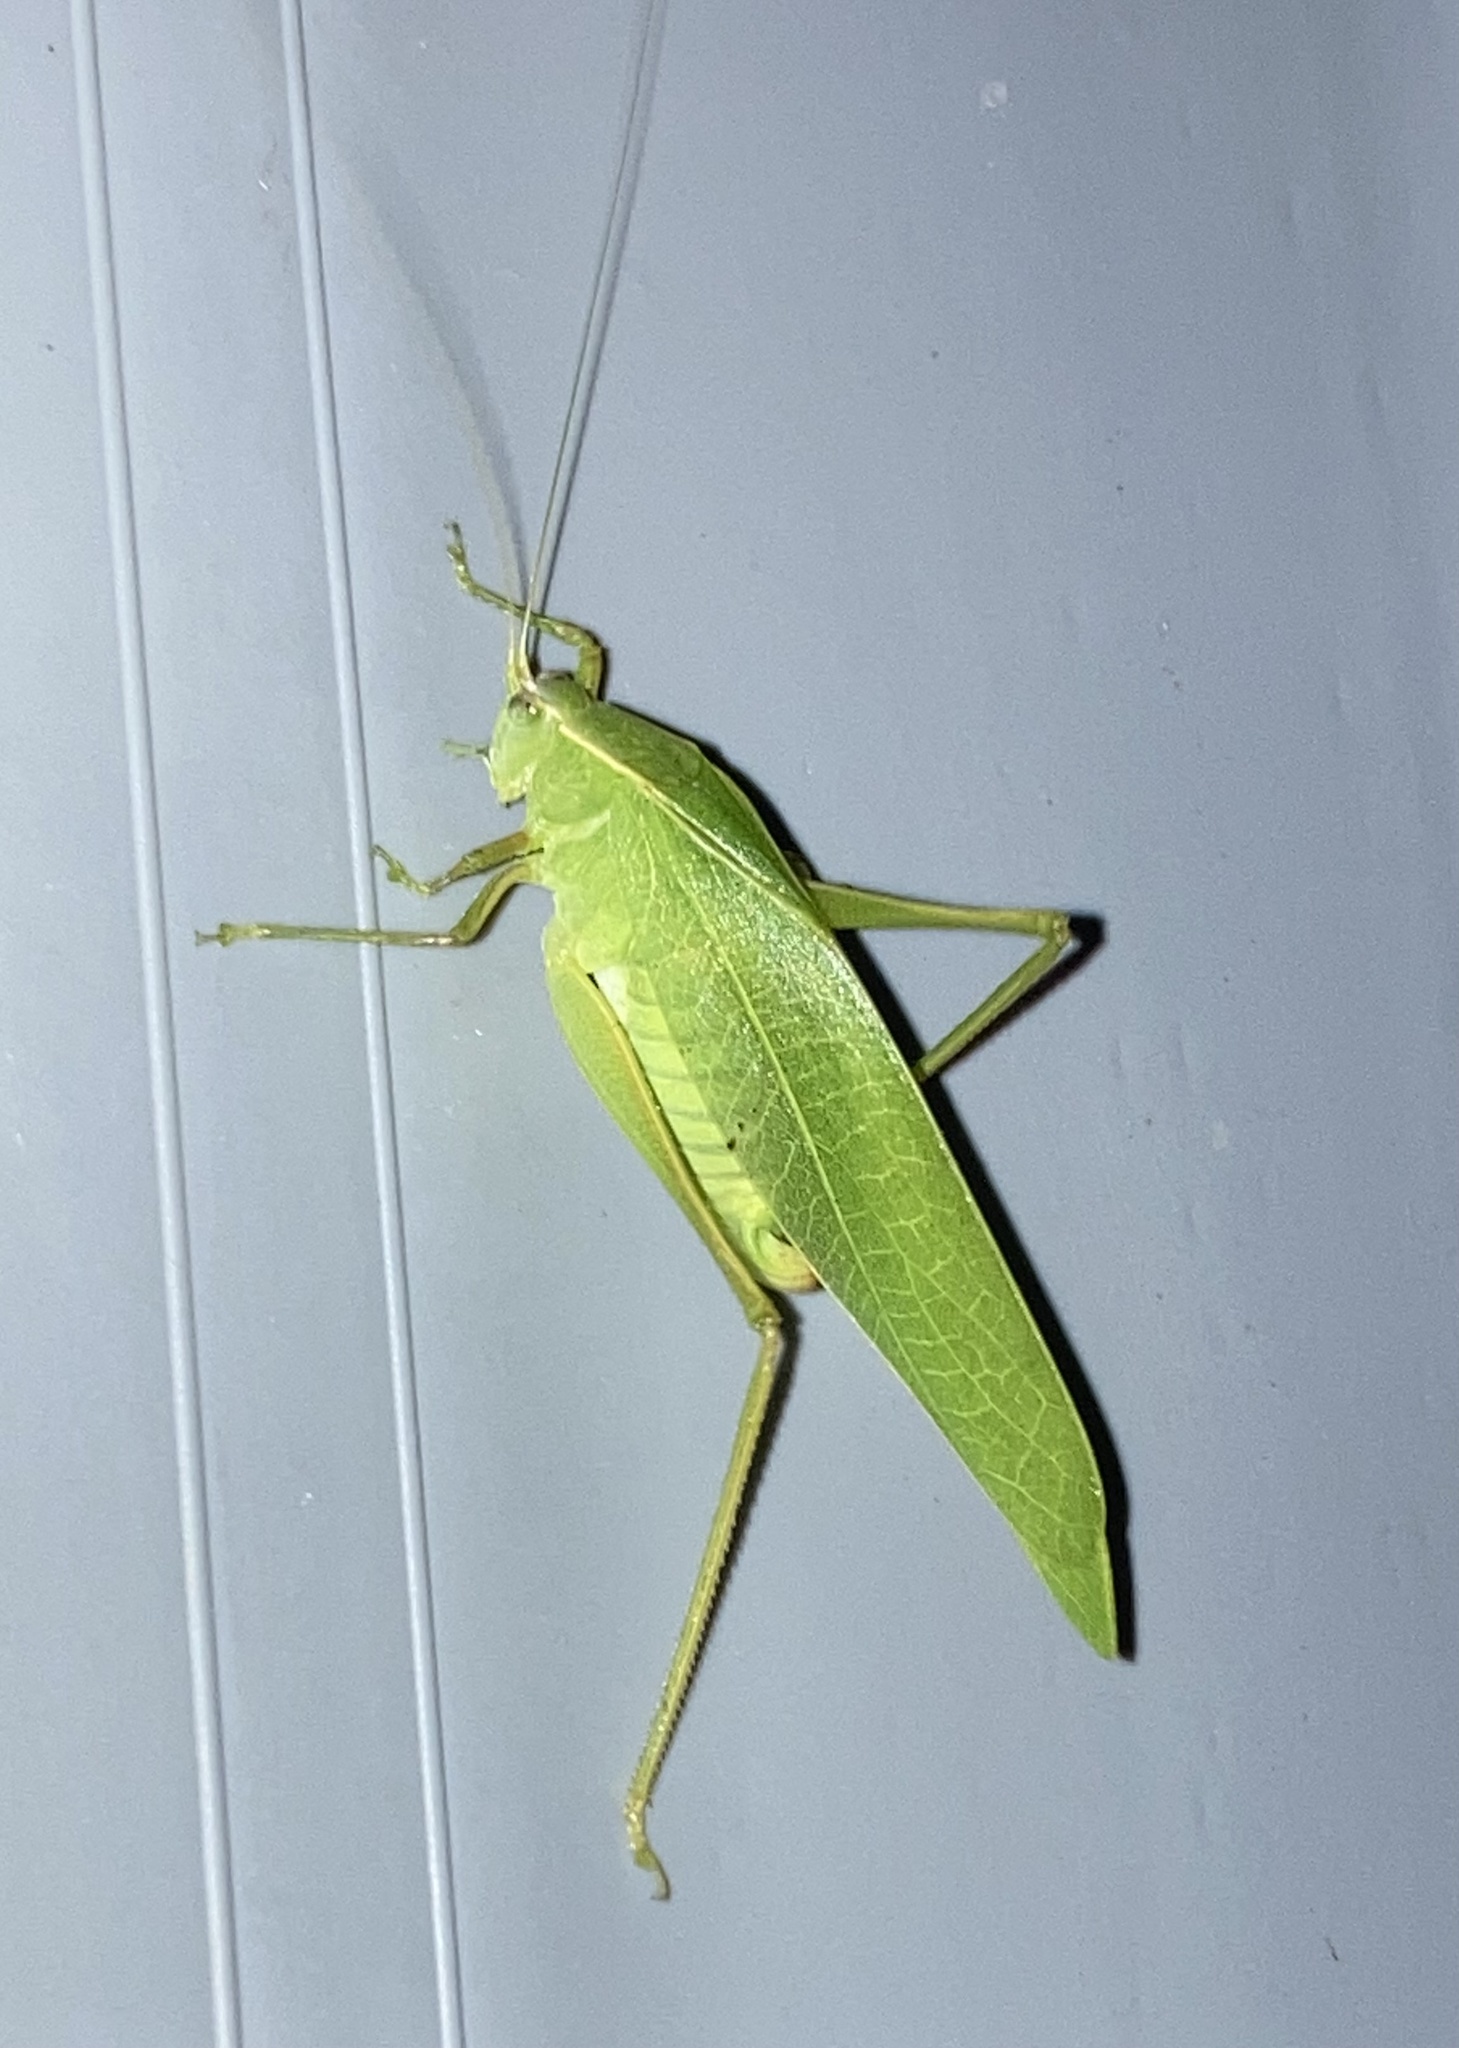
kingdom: Animalia
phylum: Arthropoda
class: Insecta
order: Orthoptera
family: Tettigoniidae
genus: Turpilia
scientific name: Turpilia rostrata
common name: Narrow-beaked katydid
